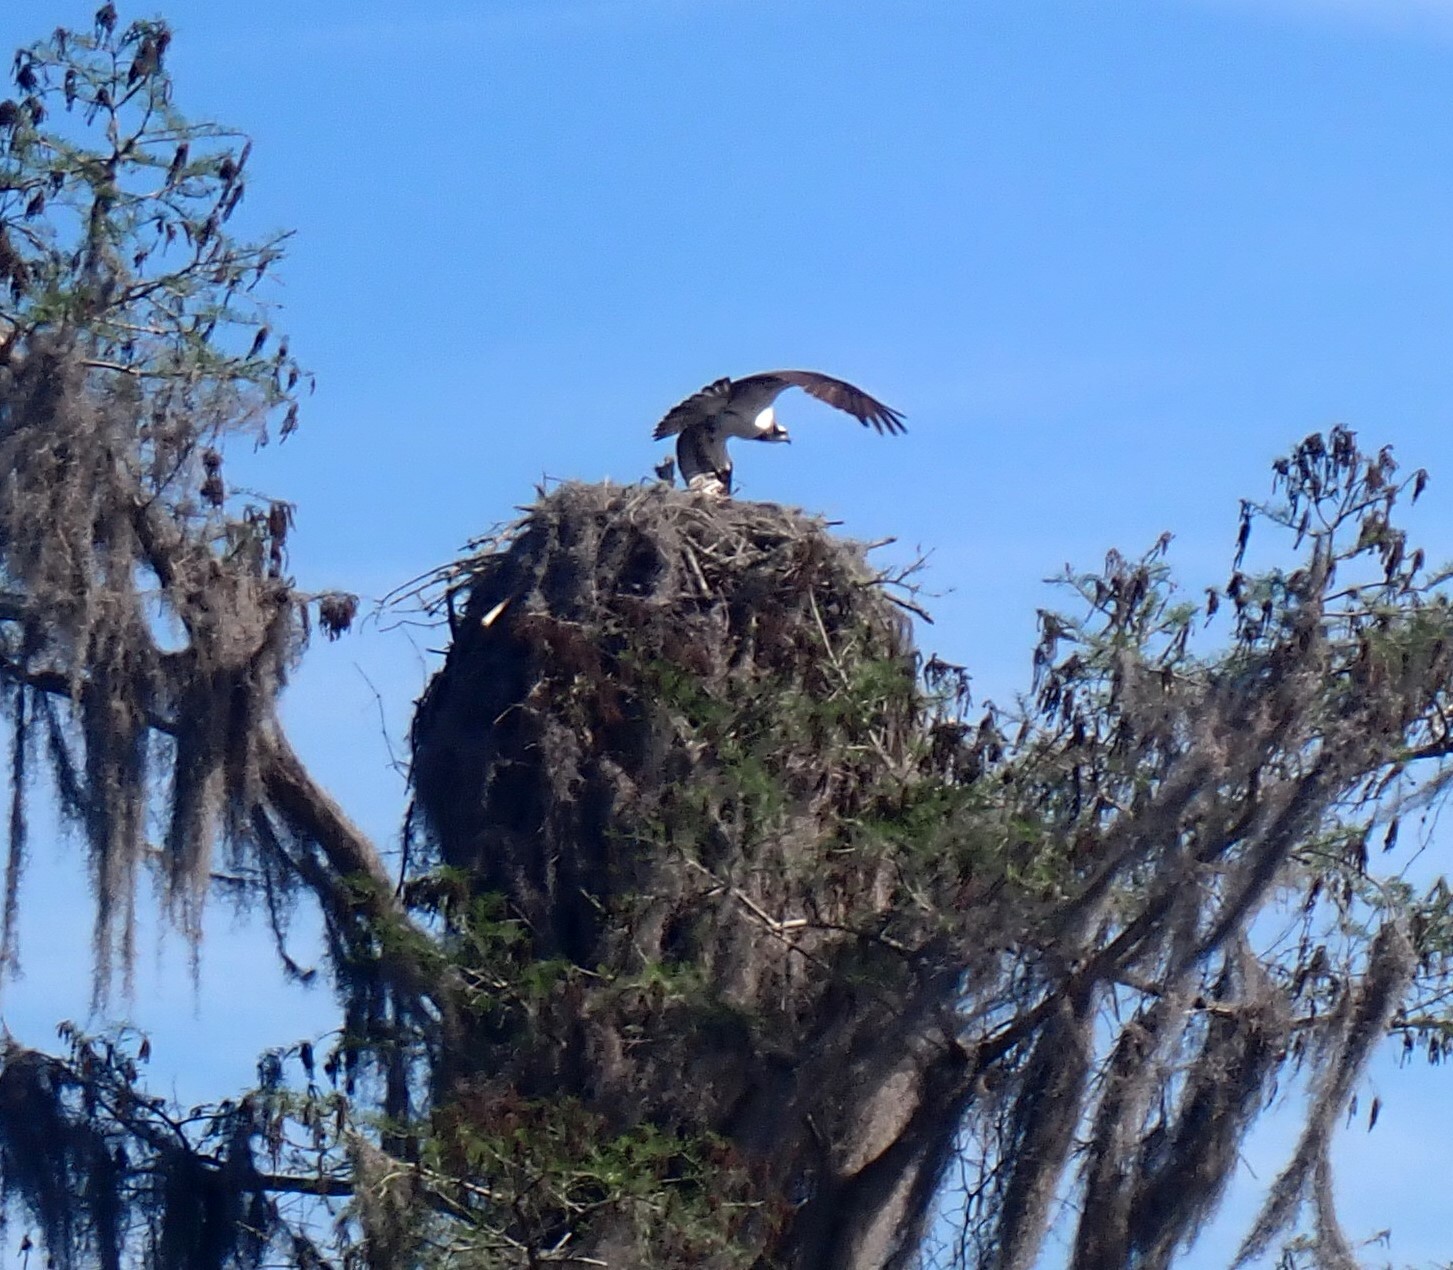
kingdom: Animalia
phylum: Chordata
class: Aves
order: Accipitriformes
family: Pandionidae
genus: Pandion
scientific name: Pandion haliaetus
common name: Osprey
